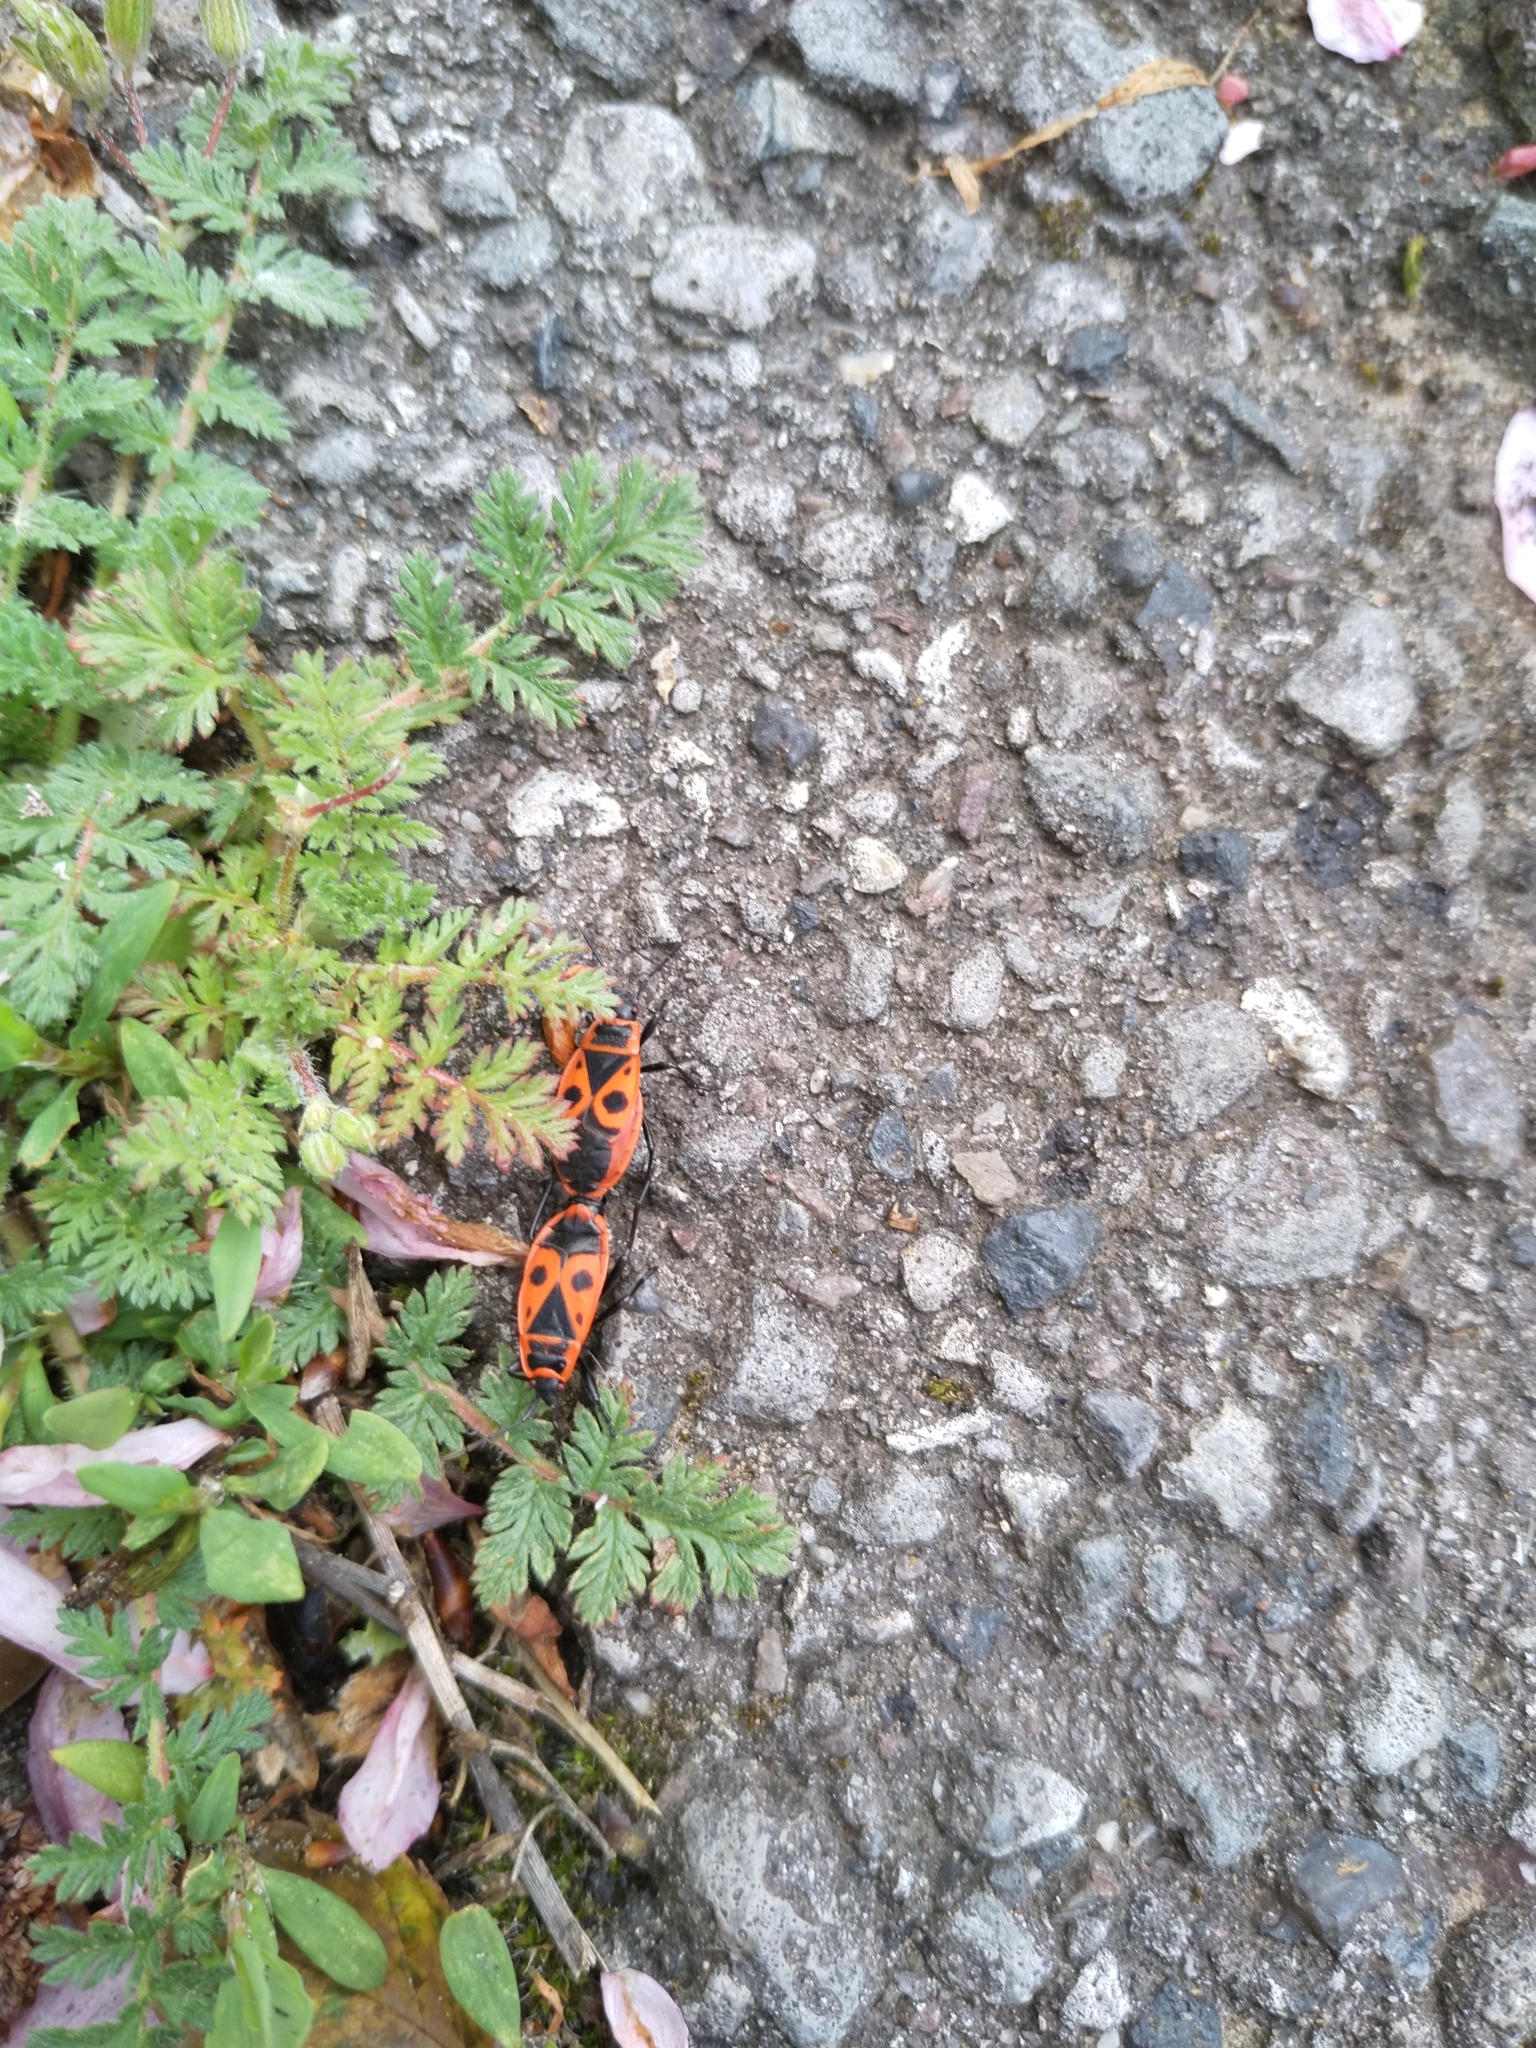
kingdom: Animalia
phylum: Arthropoda
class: Insecta
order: Hemiptera
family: Pyrrhocoridae
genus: Pyrrhocoris
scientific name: Pyrrhocoris apterus
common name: Firebug
